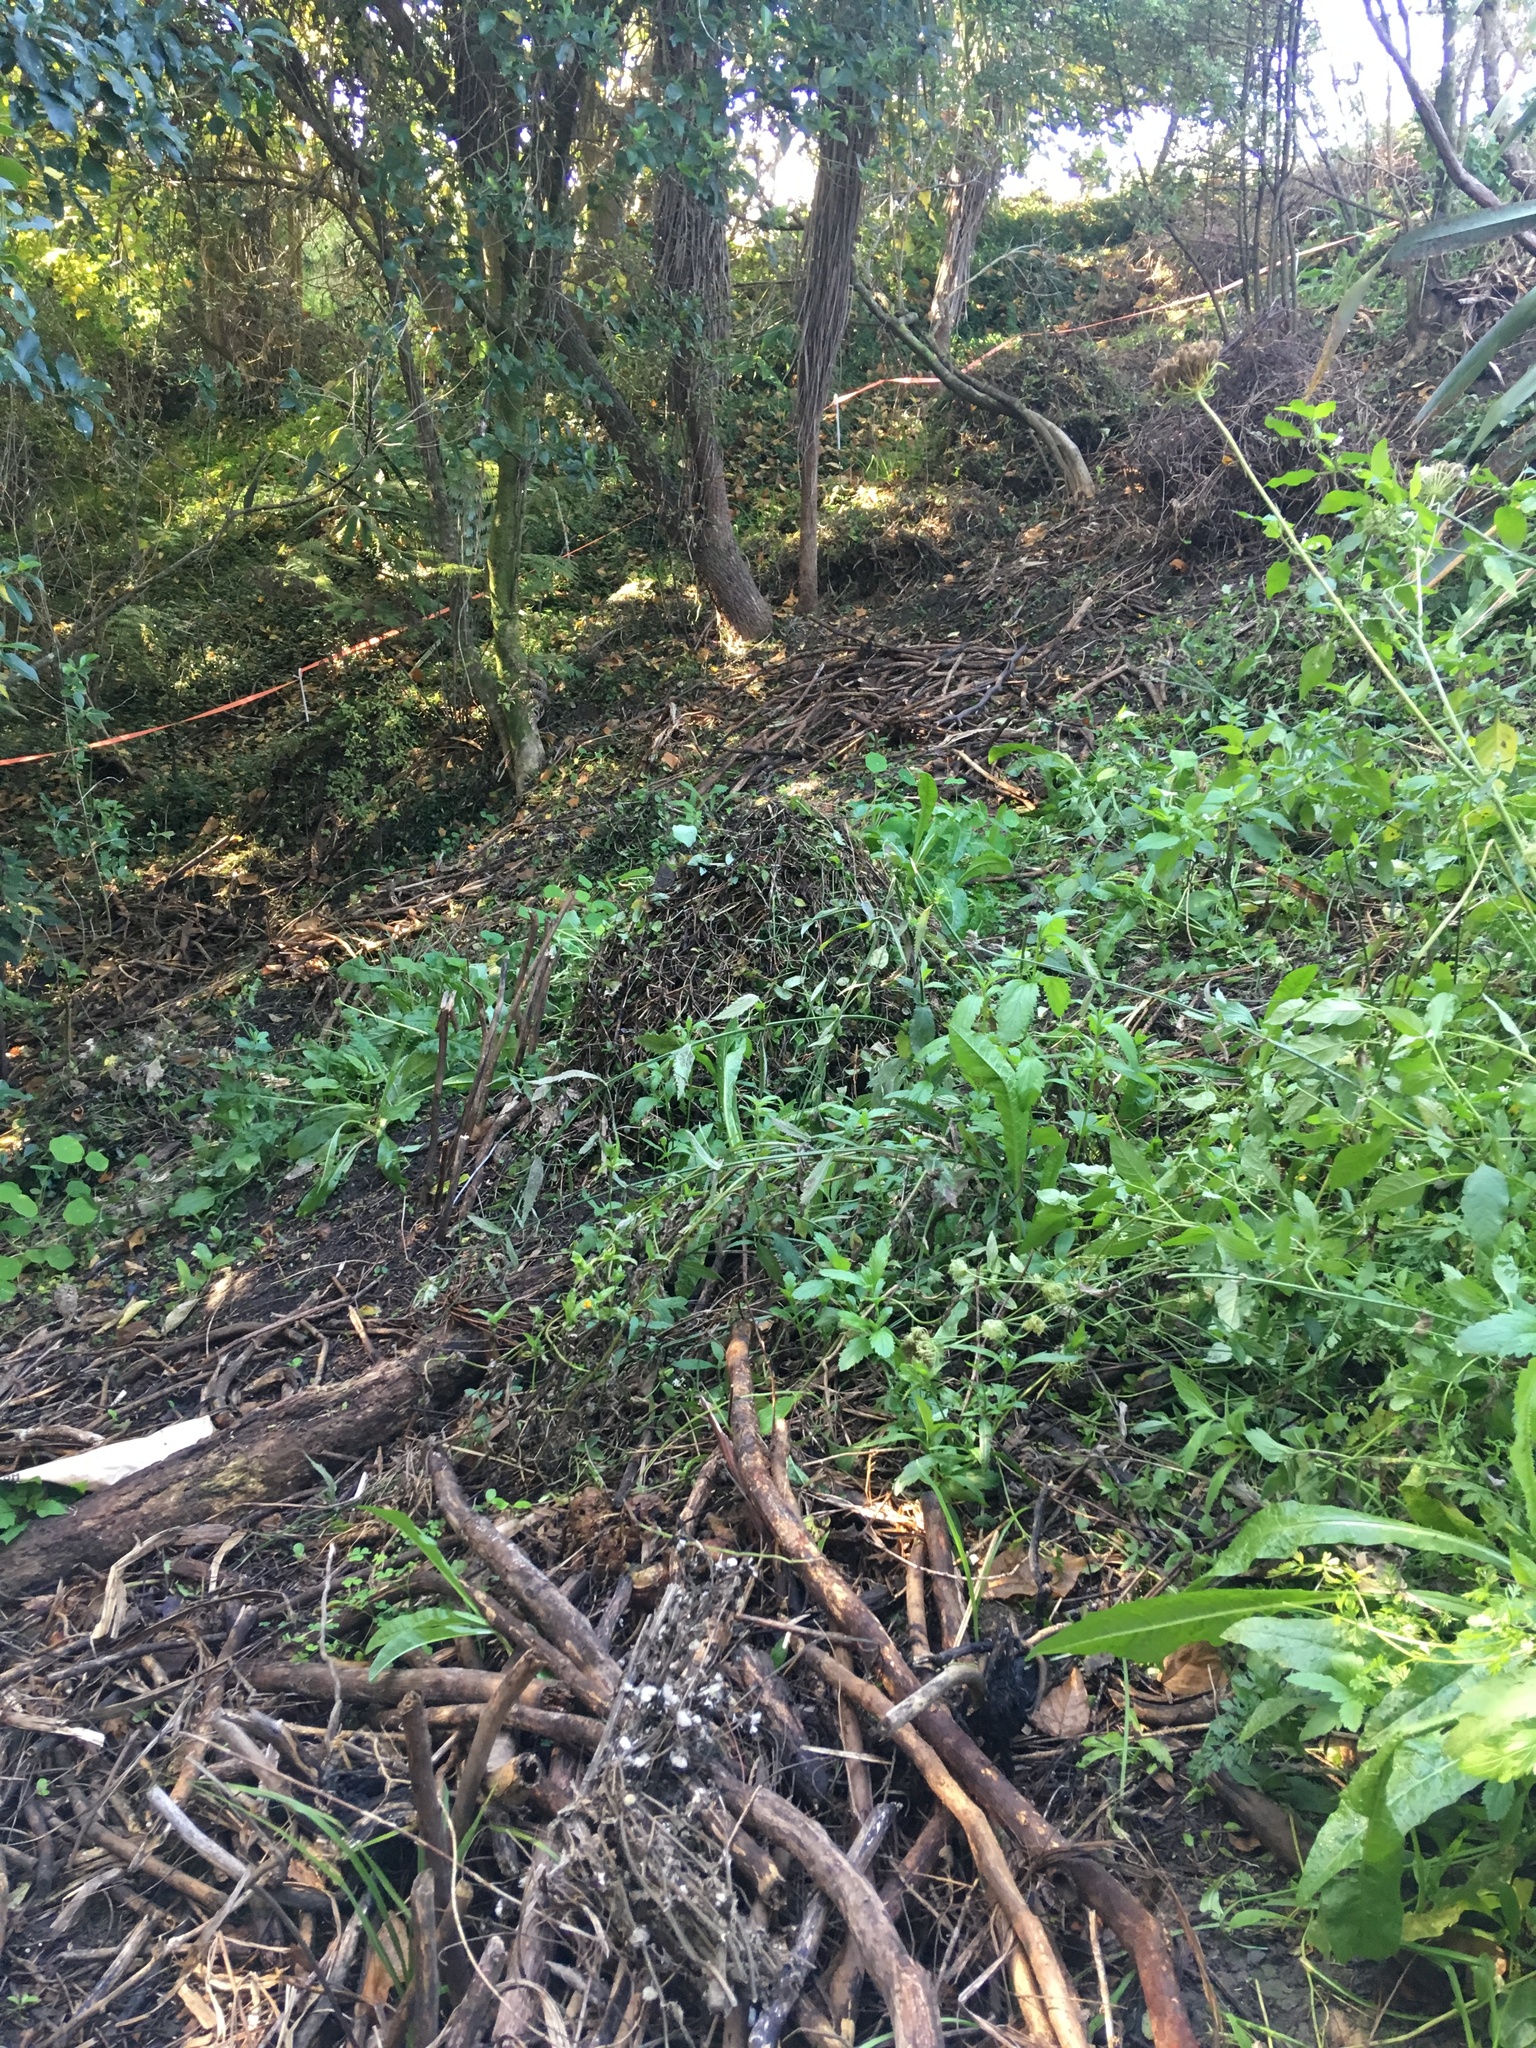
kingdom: Plantae
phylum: Tracheophyta
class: Liliopsida
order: Commelinales
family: Commelinaceae
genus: Tradescantia
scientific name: Tradescantia fluminensis
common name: Wandering-jew
